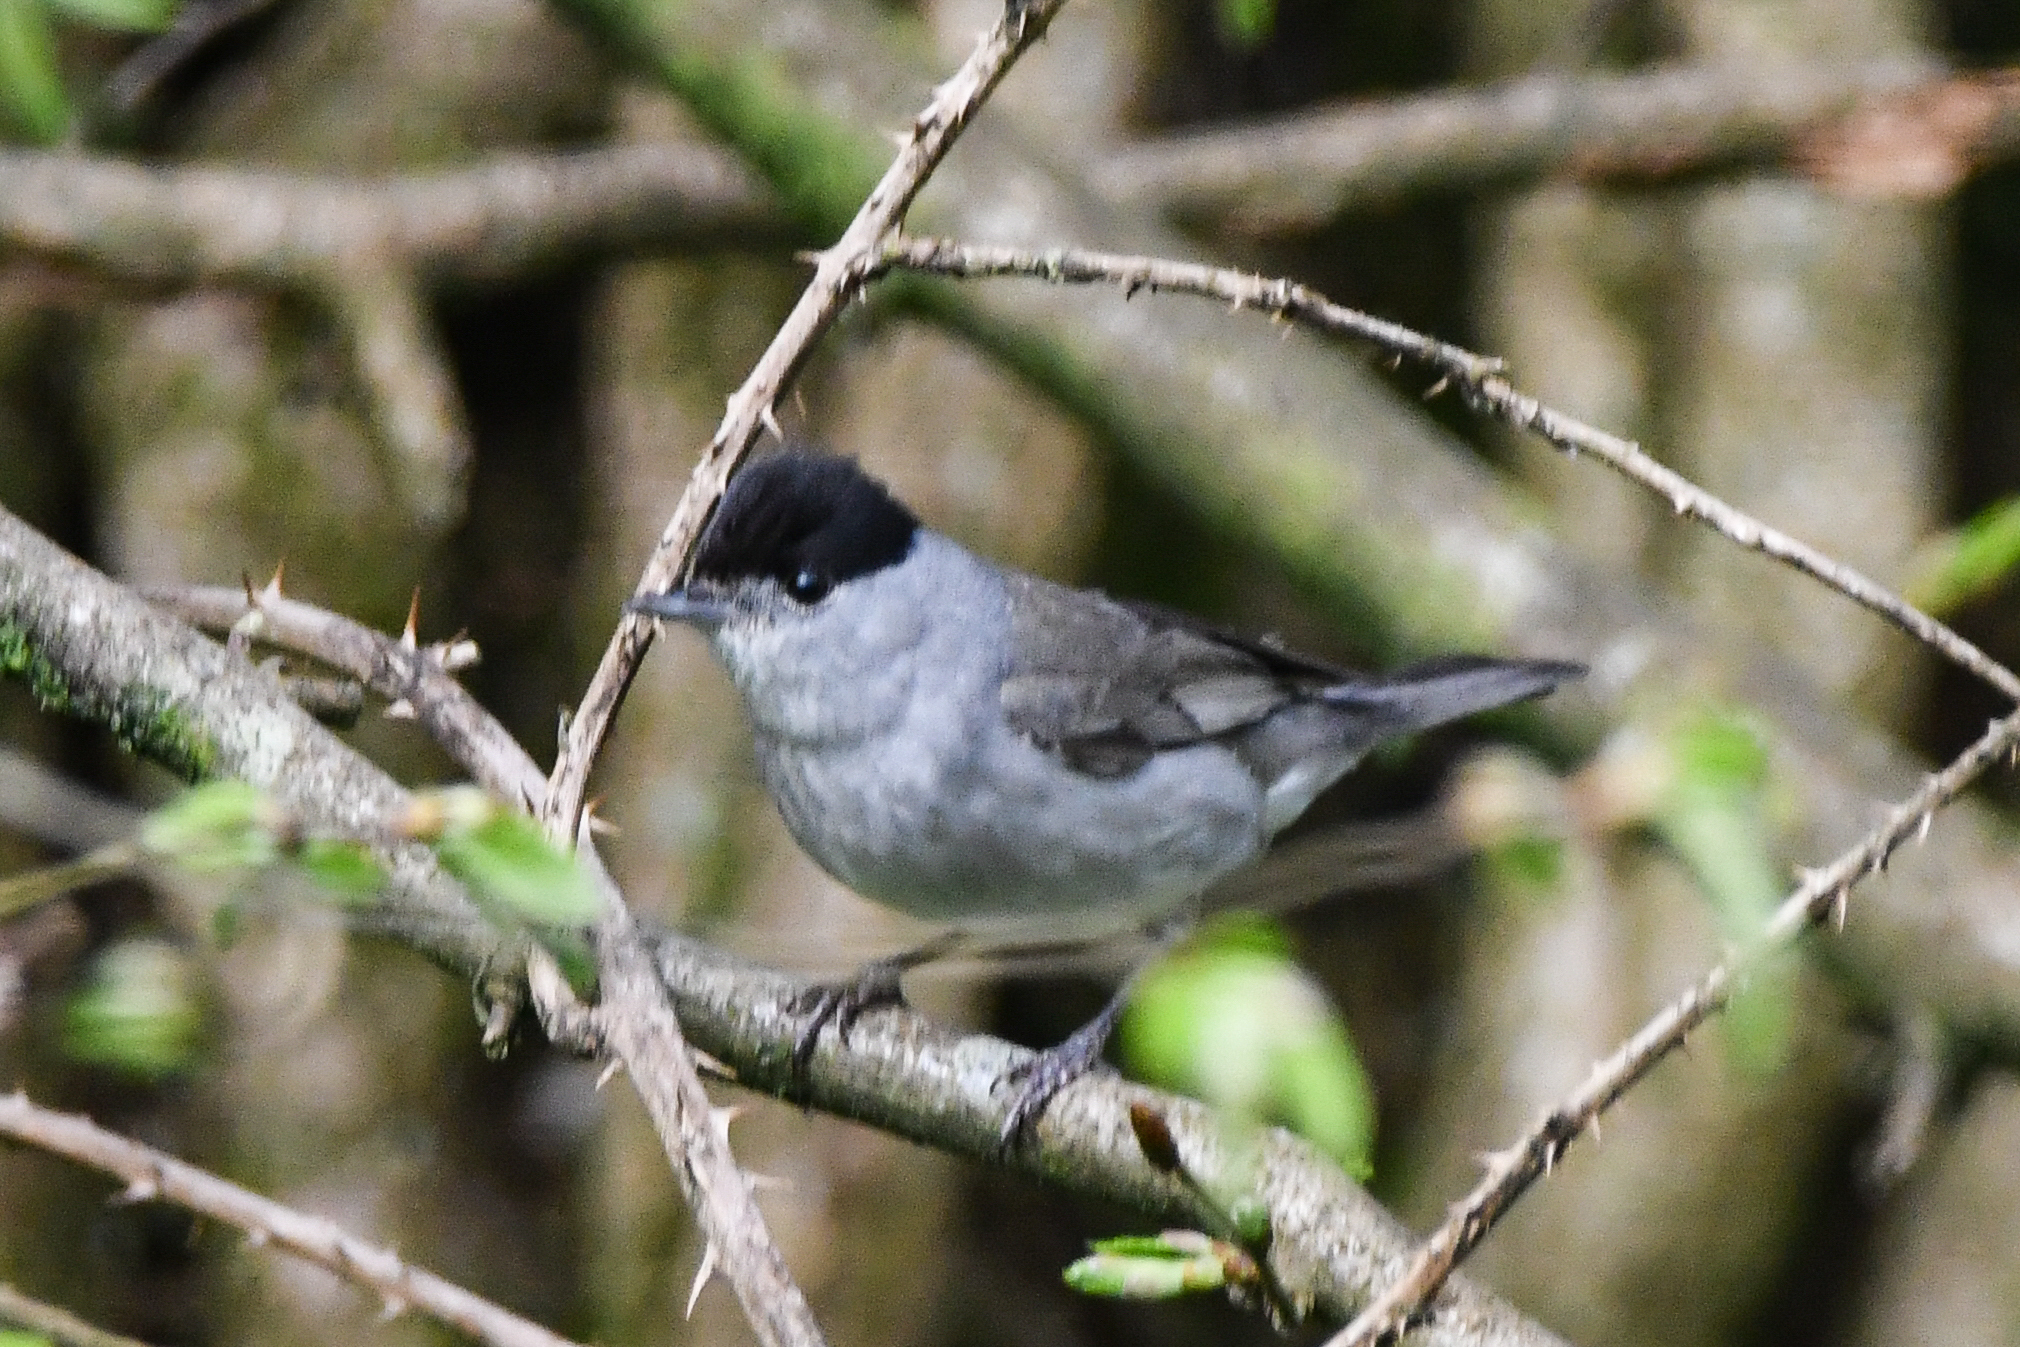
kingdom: Animalia
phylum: Chordata
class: Aves
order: Passeriformes
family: Sylviidae
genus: Sylvia
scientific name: Sylvia atricapilla
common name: Eurasian blackcap
